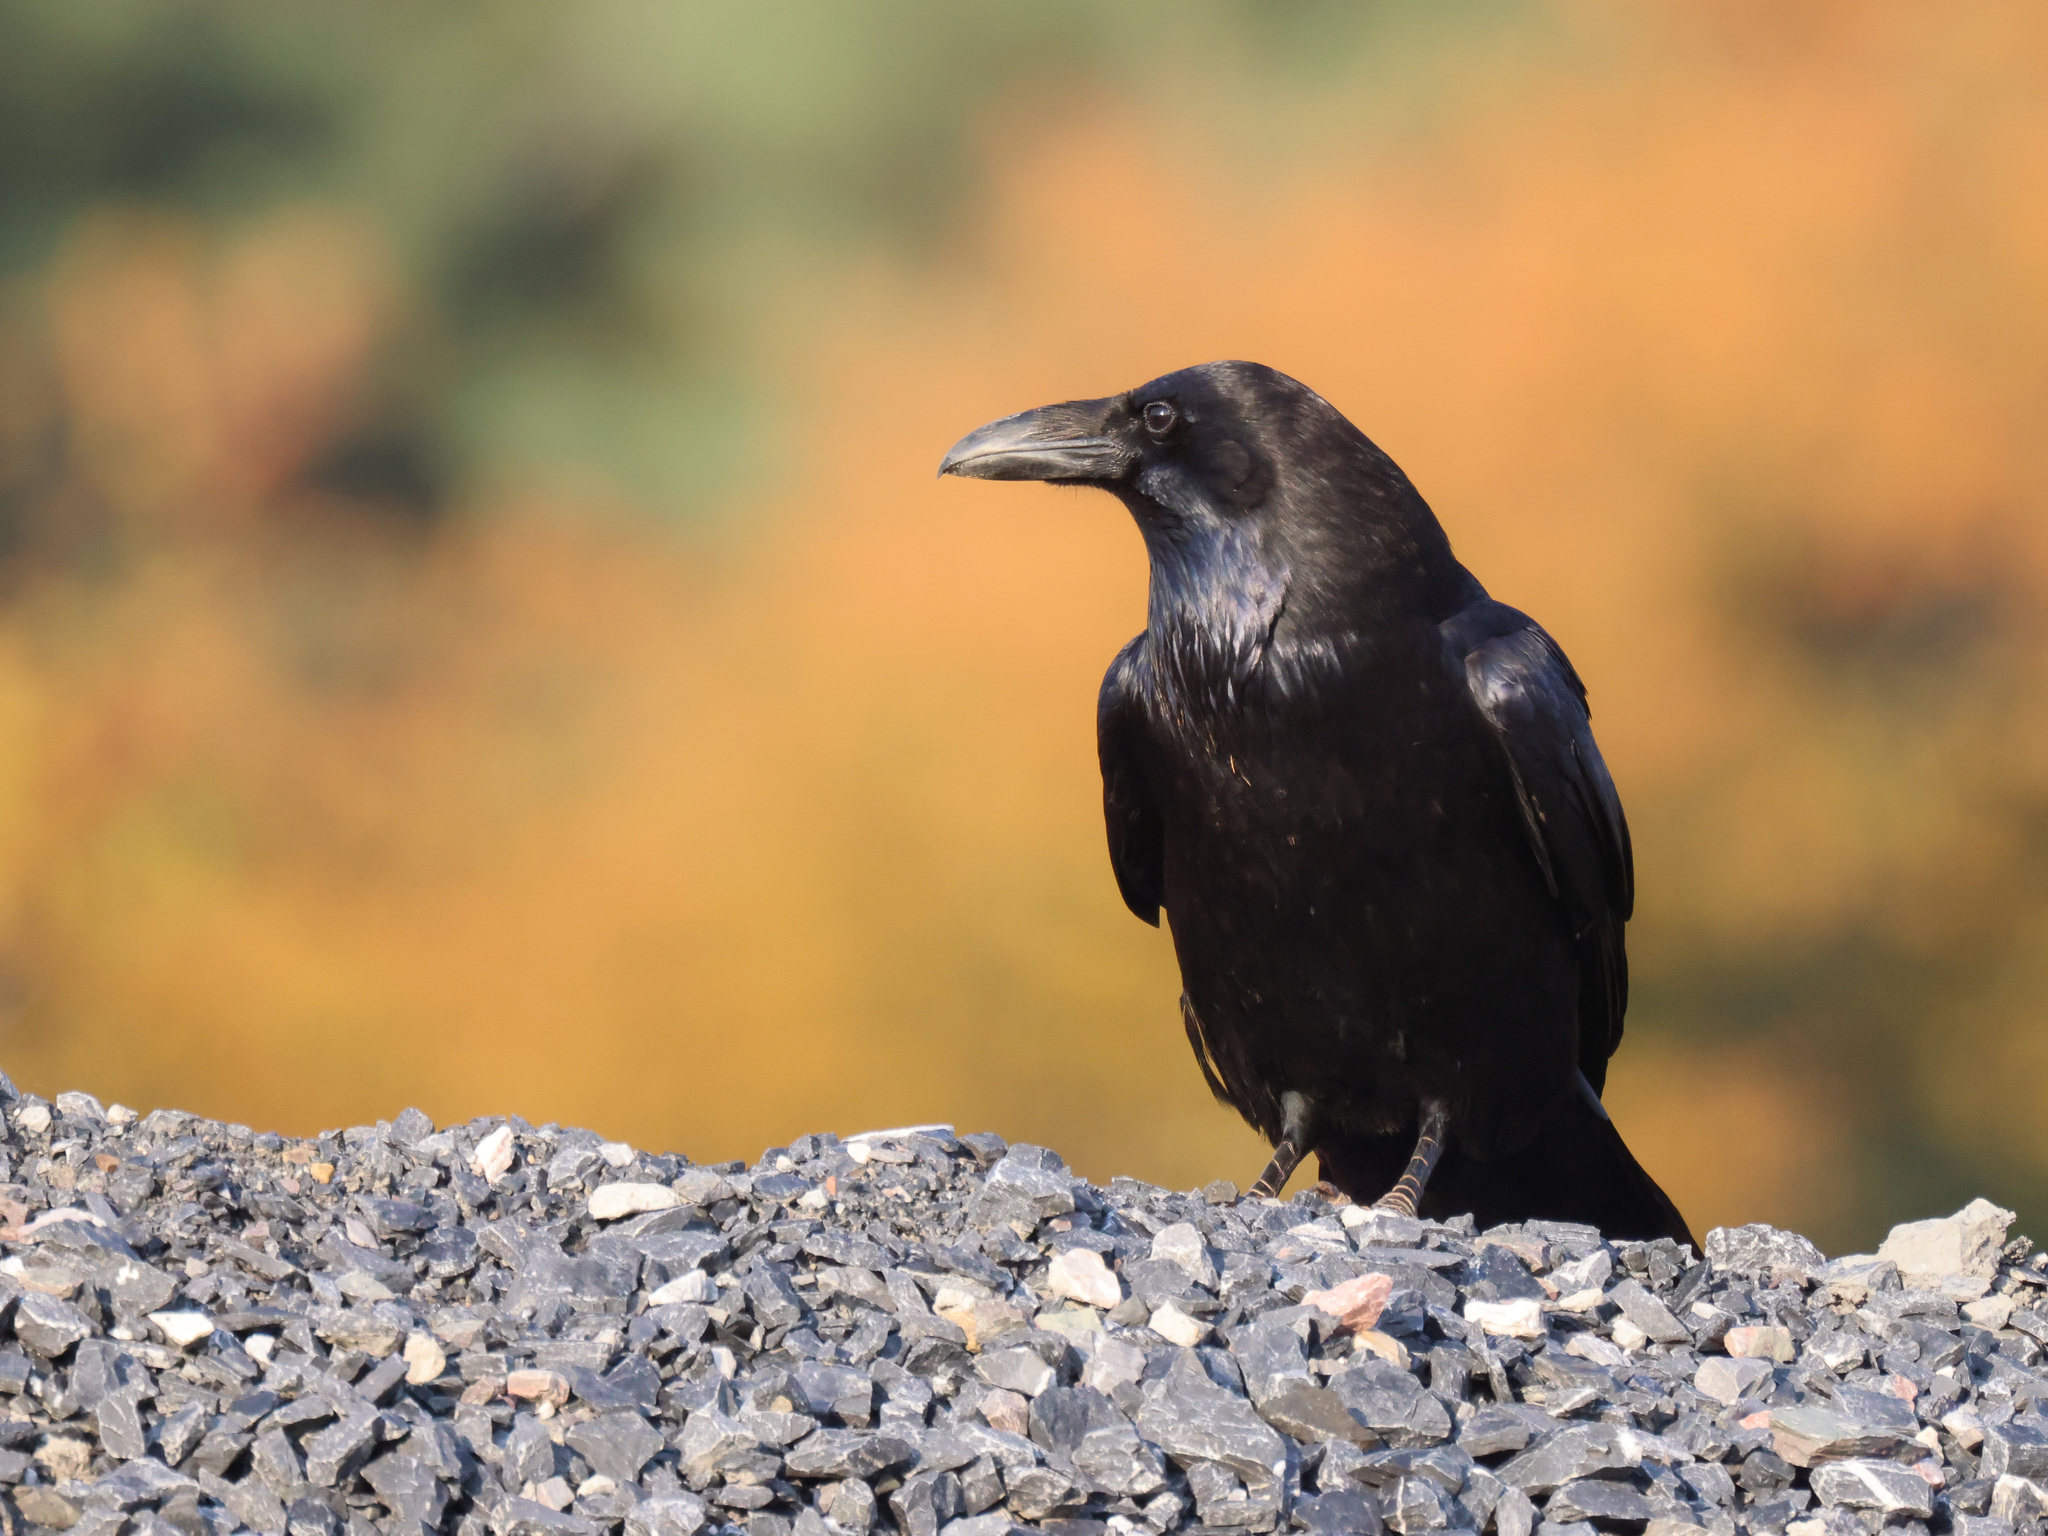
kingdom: Animalia
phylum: Chordata
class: Aves
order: Passeriformes
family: Corvidae
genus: Corvus
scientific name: Corvus corax
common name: Common raven
